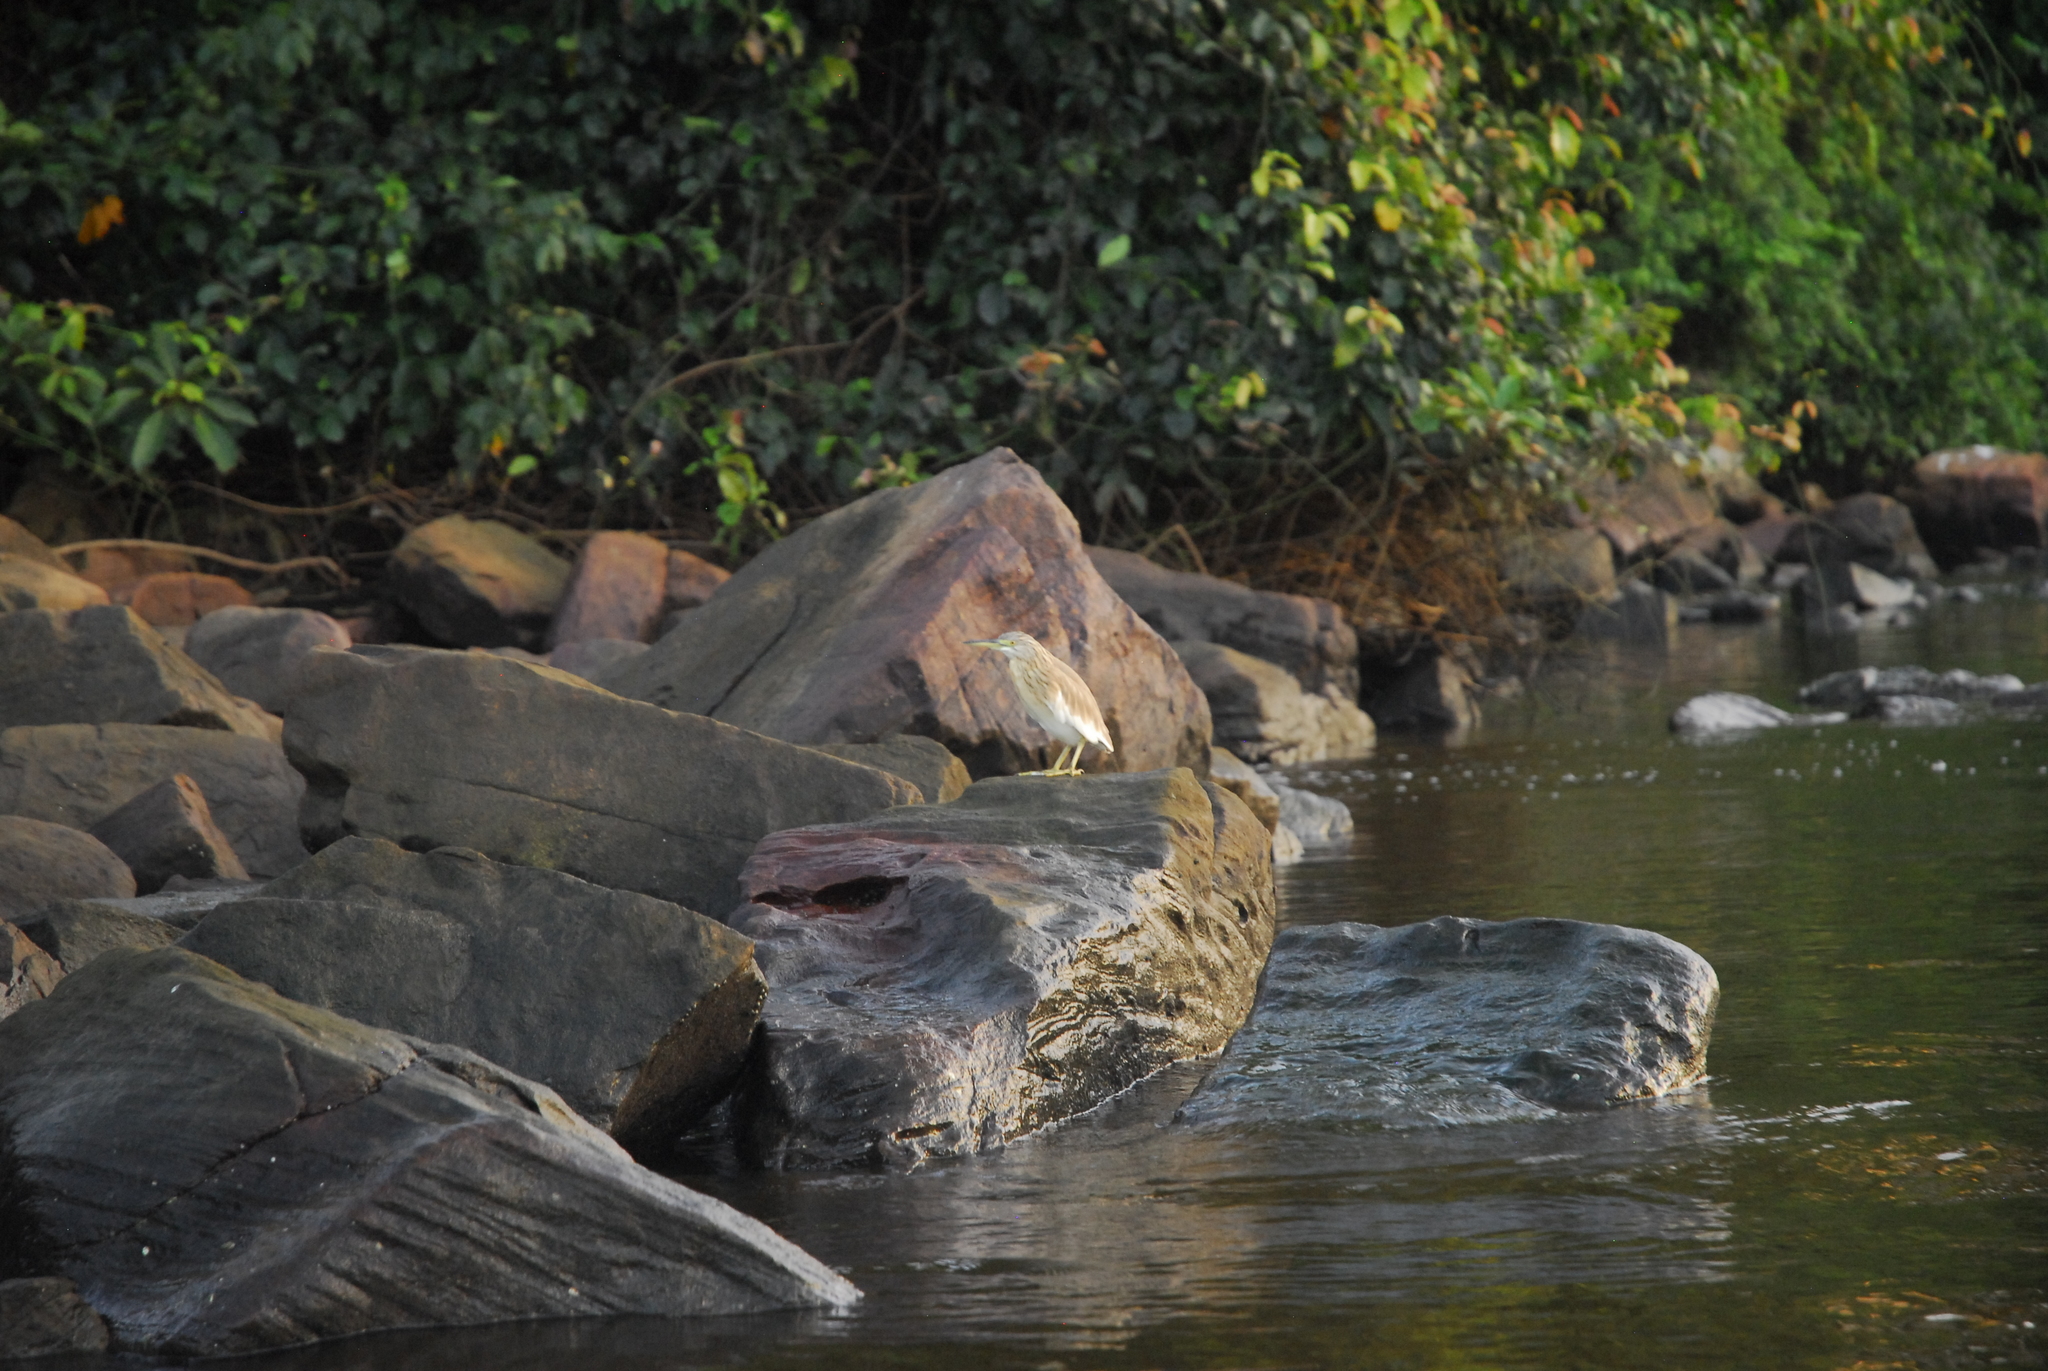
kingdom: Animalia
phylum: Chordata
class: Aves
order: Pelecaniformes
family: Ardeidae
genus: Ardeola
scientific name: Ardeola ralloides
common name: Squacco heron
